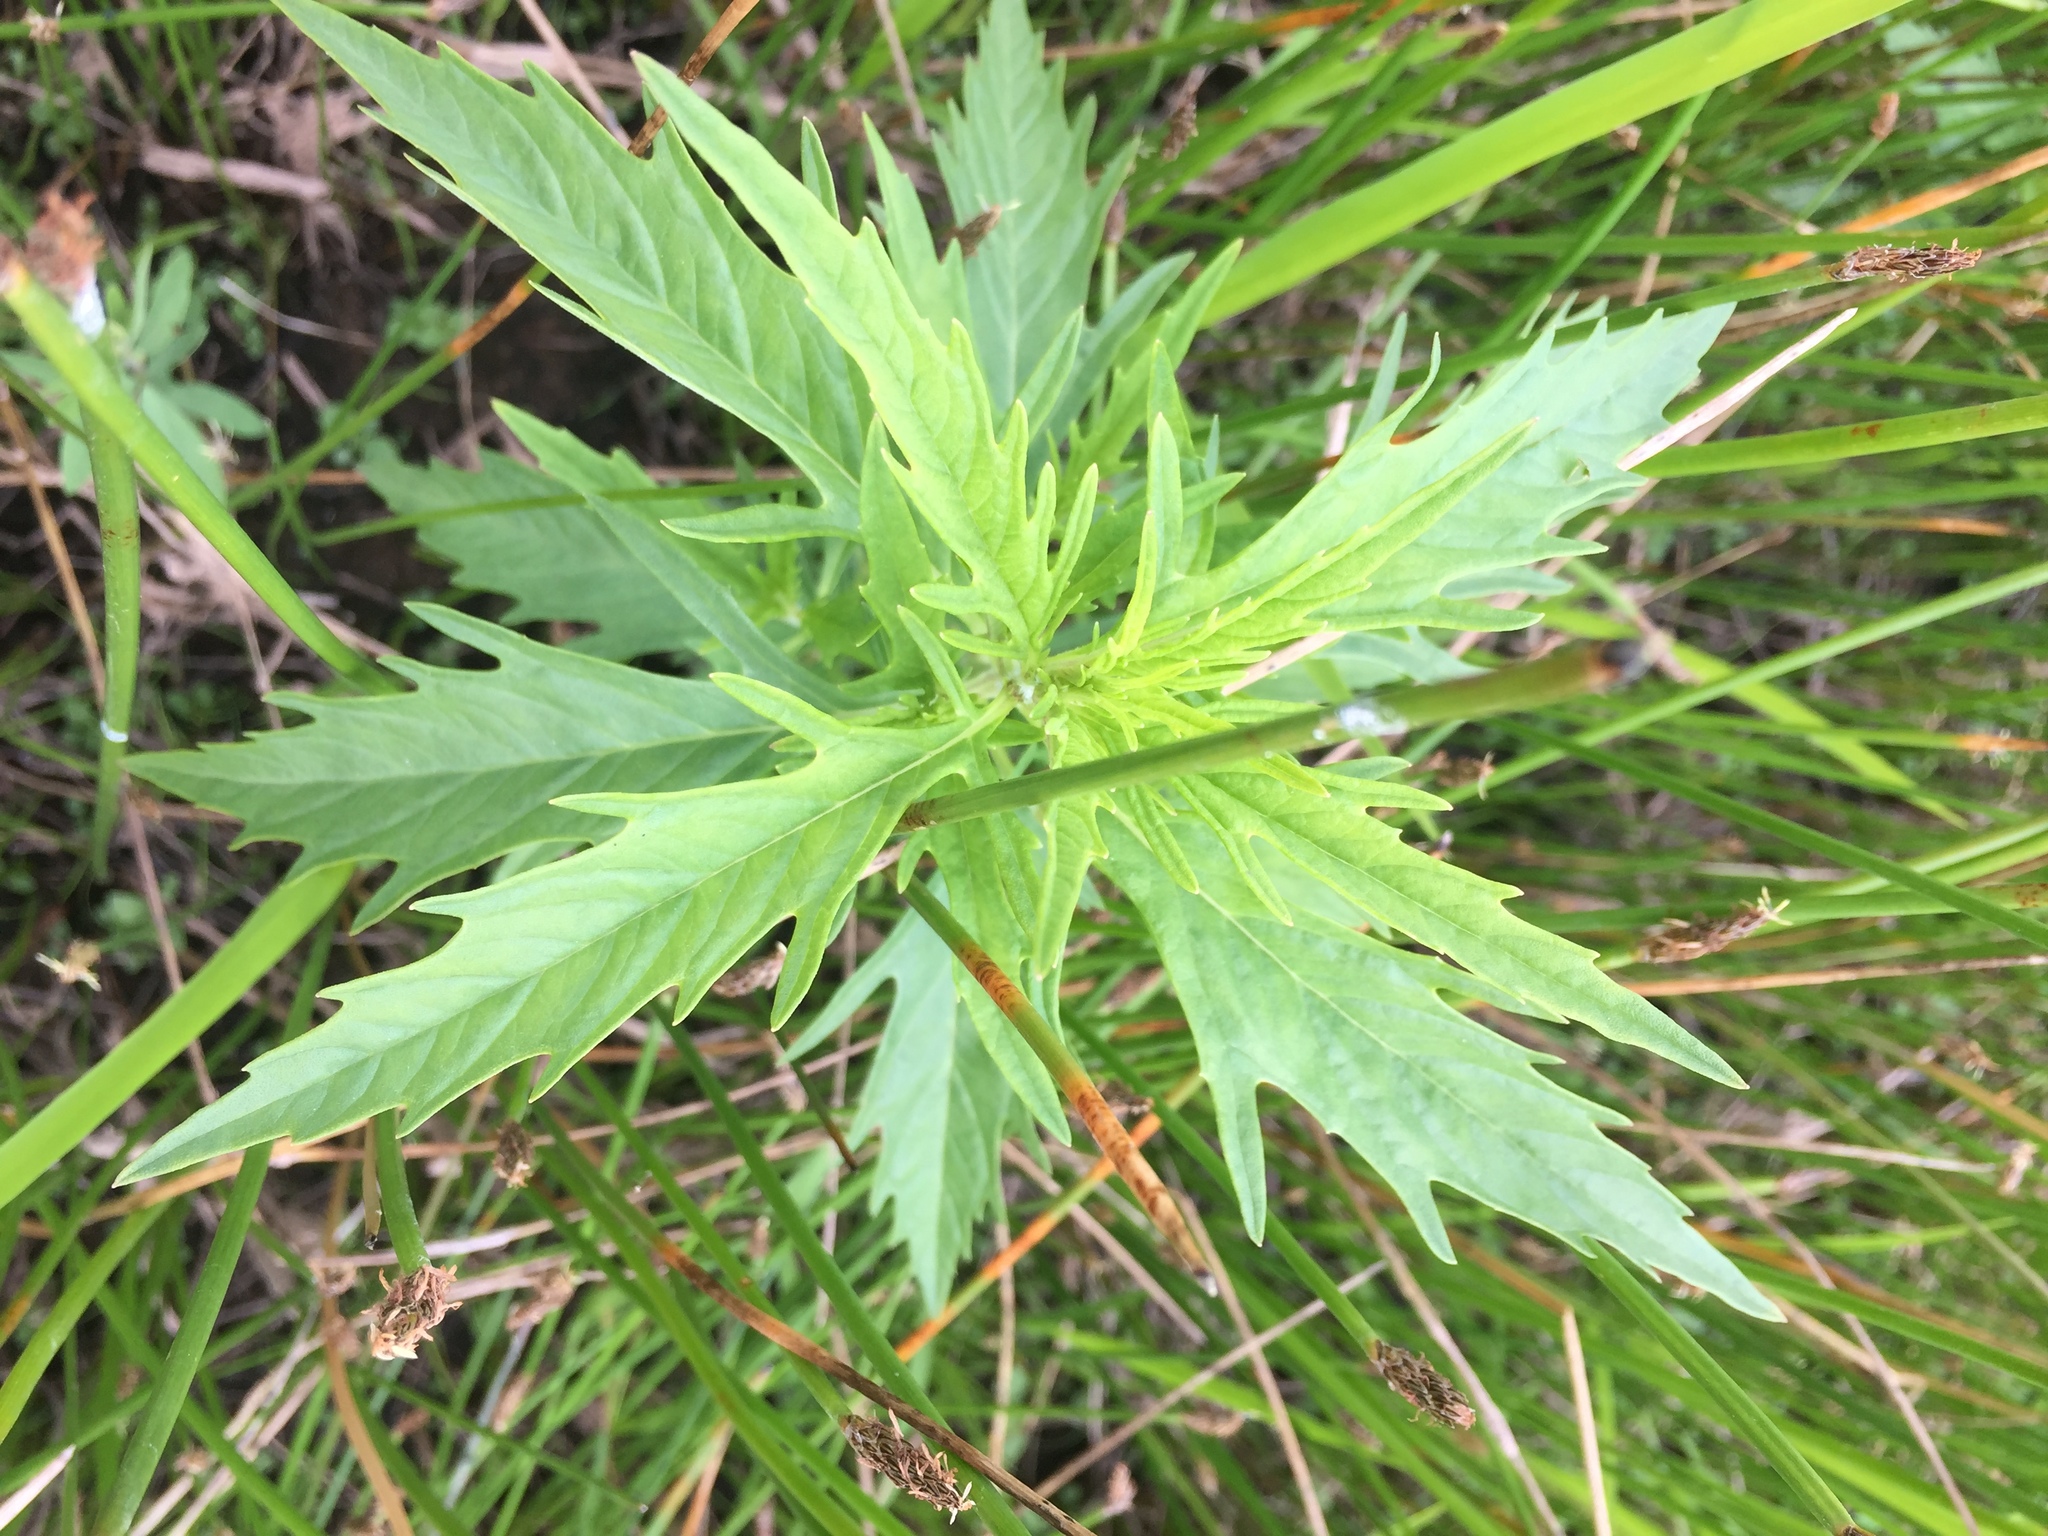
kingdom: Plantae
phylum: Tracheophyta
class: Magnoliopsida
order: Lamiales
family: Lamiaceae
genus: Lycopus
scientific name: Lycopus americanus
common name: American bugleweed
